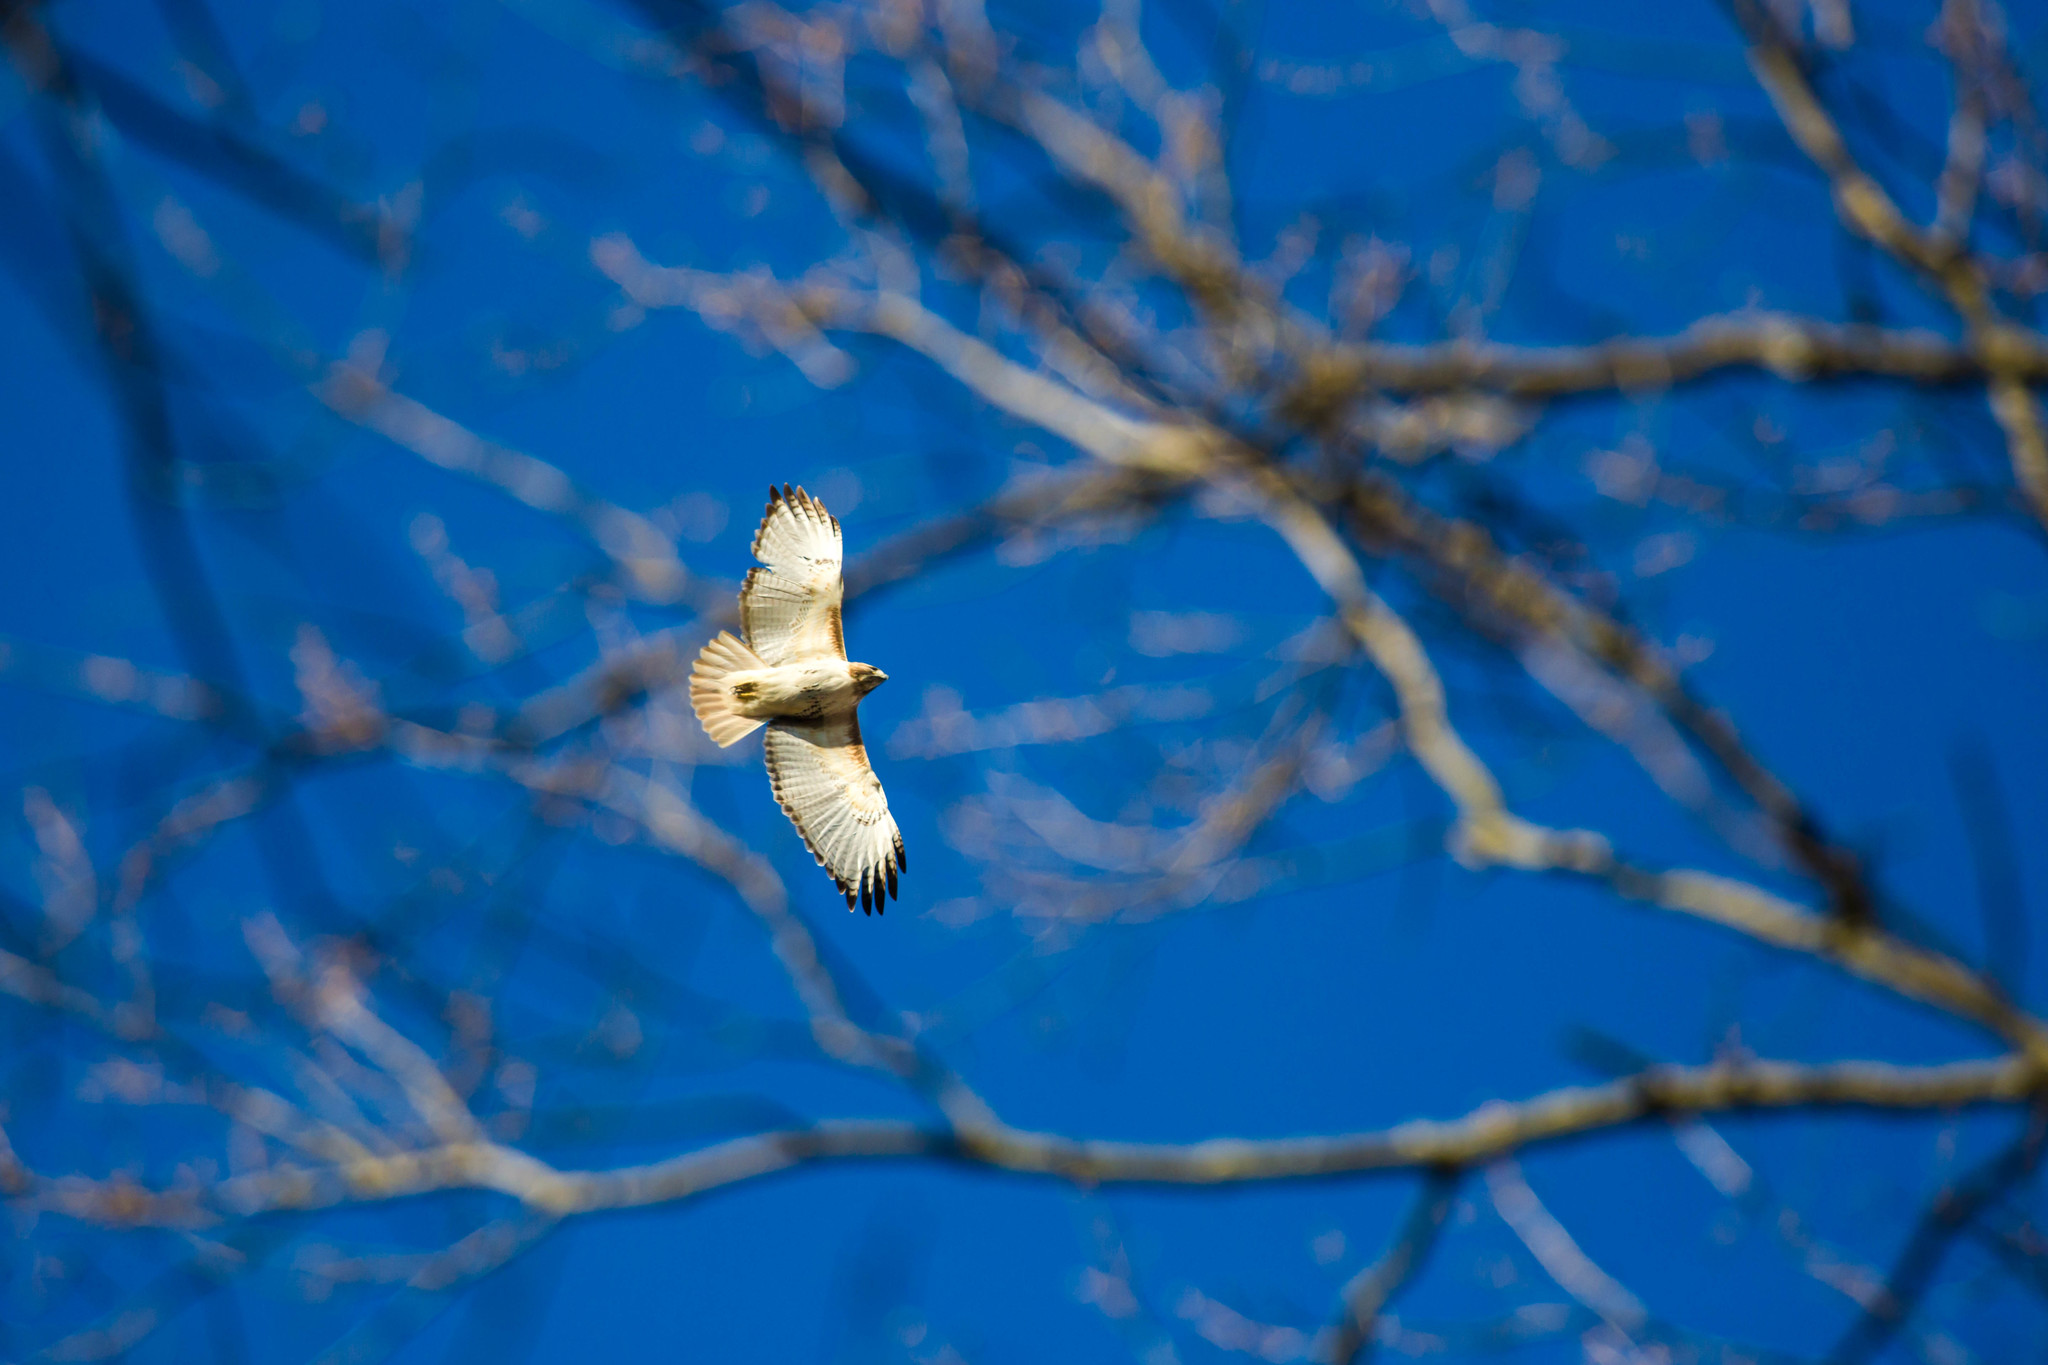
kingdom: Animalia
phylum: Chordata
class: Aves
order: Accipitriformes
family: Accipitridae
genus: Buteo
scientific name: Buteo jamaicensis
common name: Red-tailed hawk
